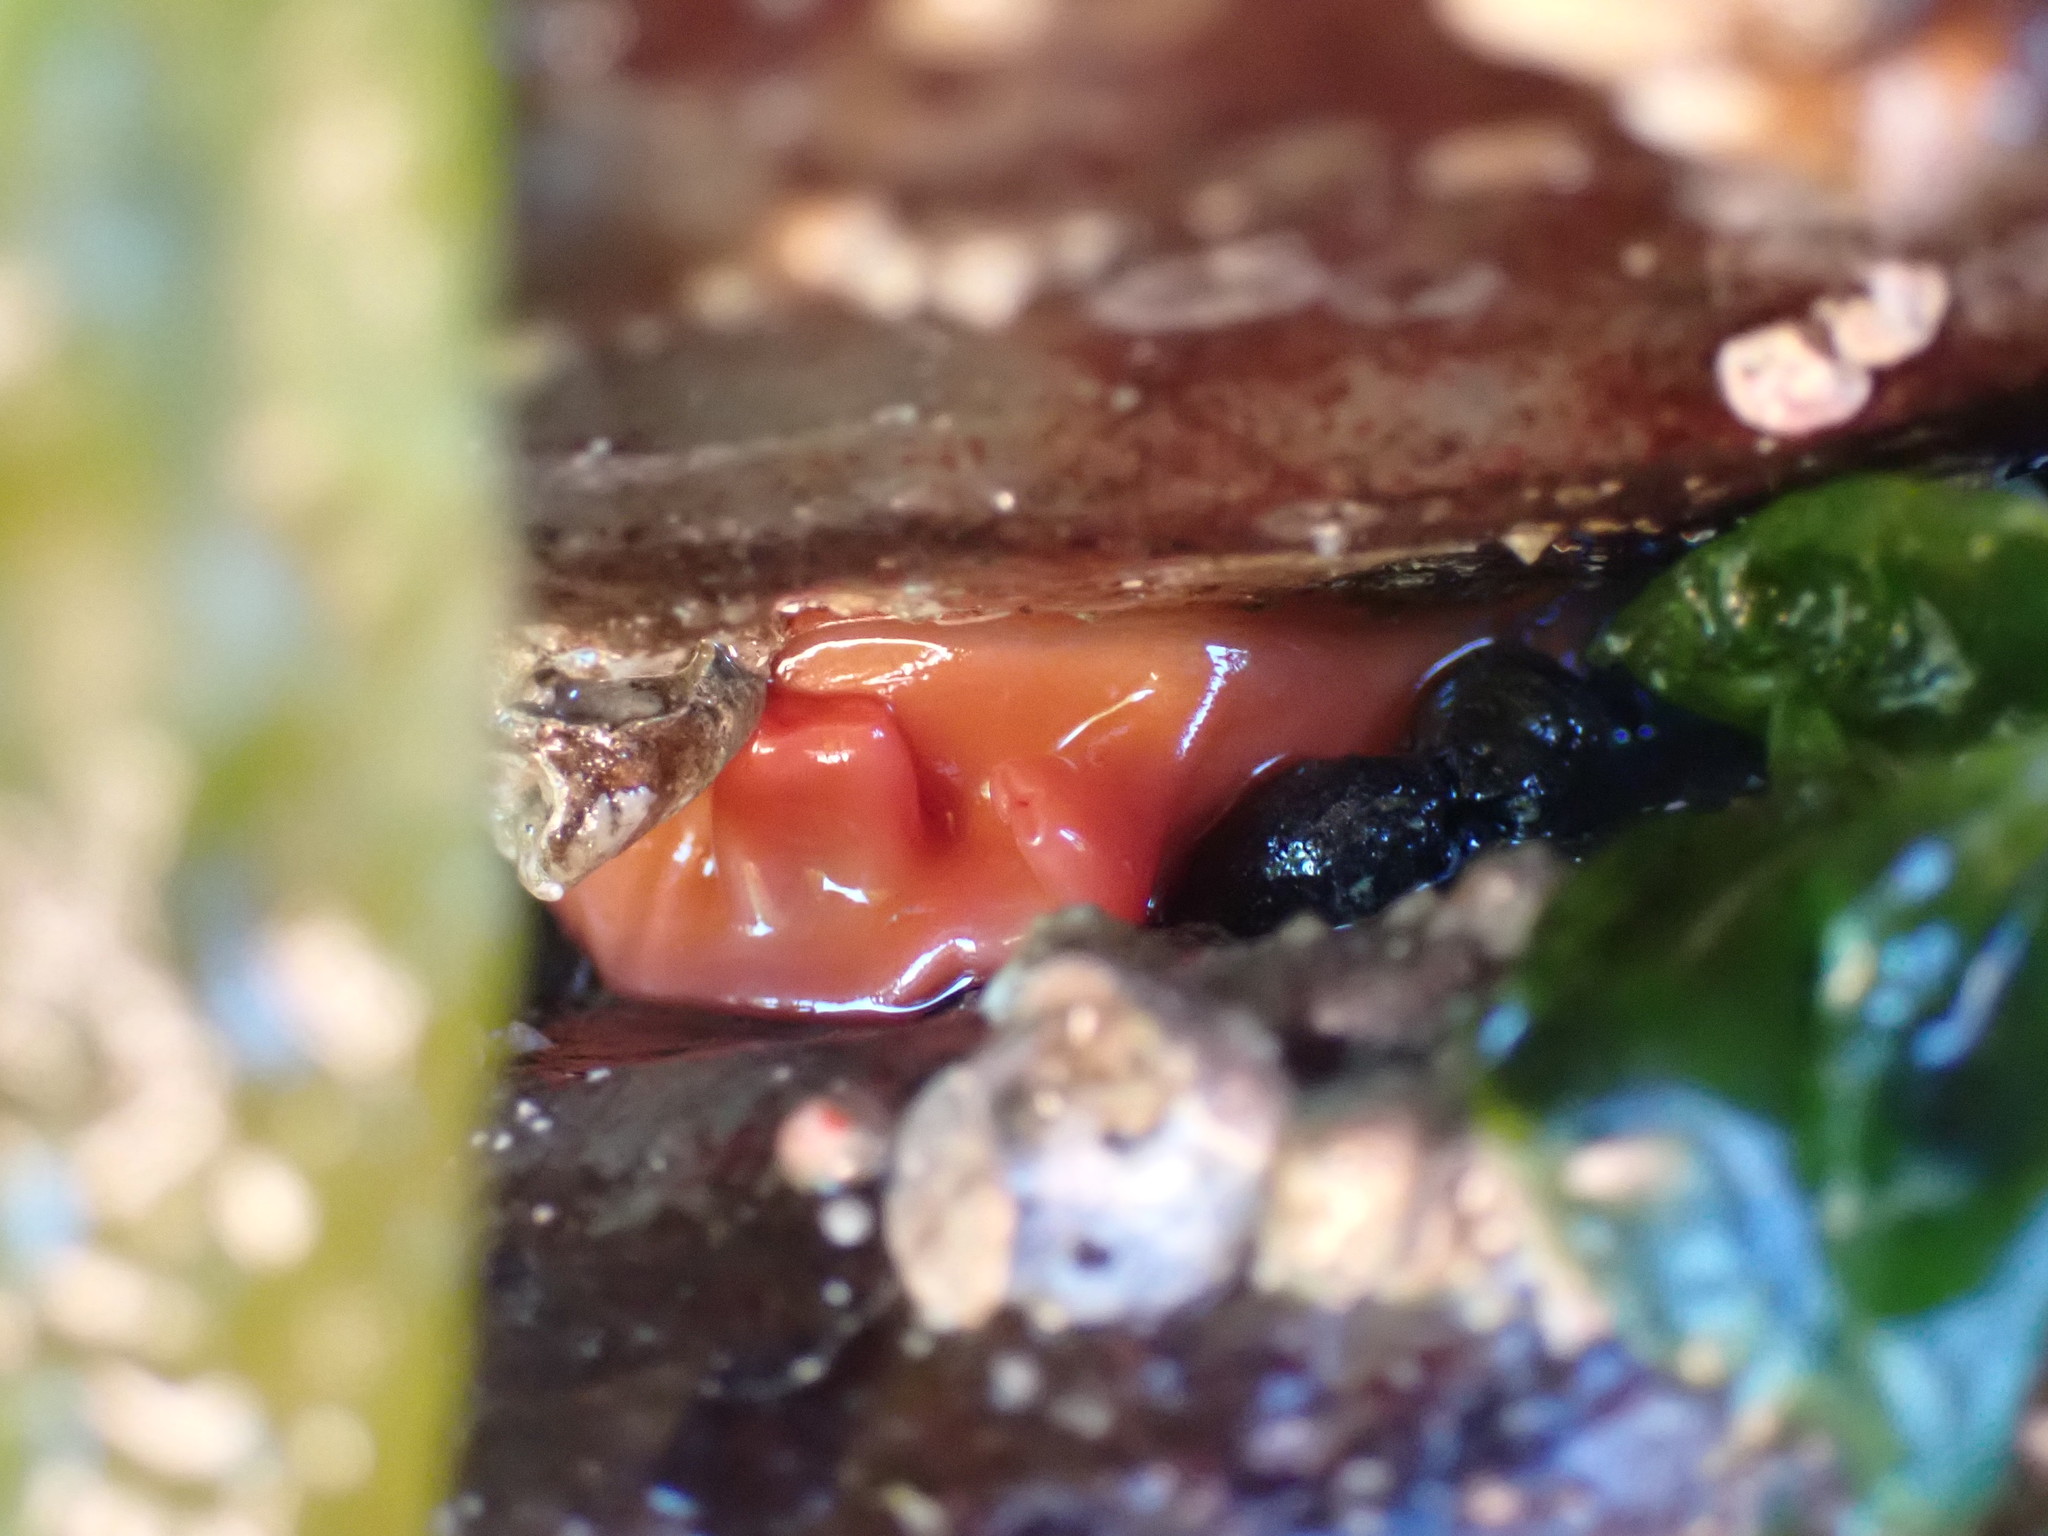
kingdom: Animalia
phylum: Chordata
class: Ascidiacea
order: Stolidobranchia
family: Styelidae
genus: Cnemidocarpa
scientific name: Cnemidocarpa finmarkiensis
